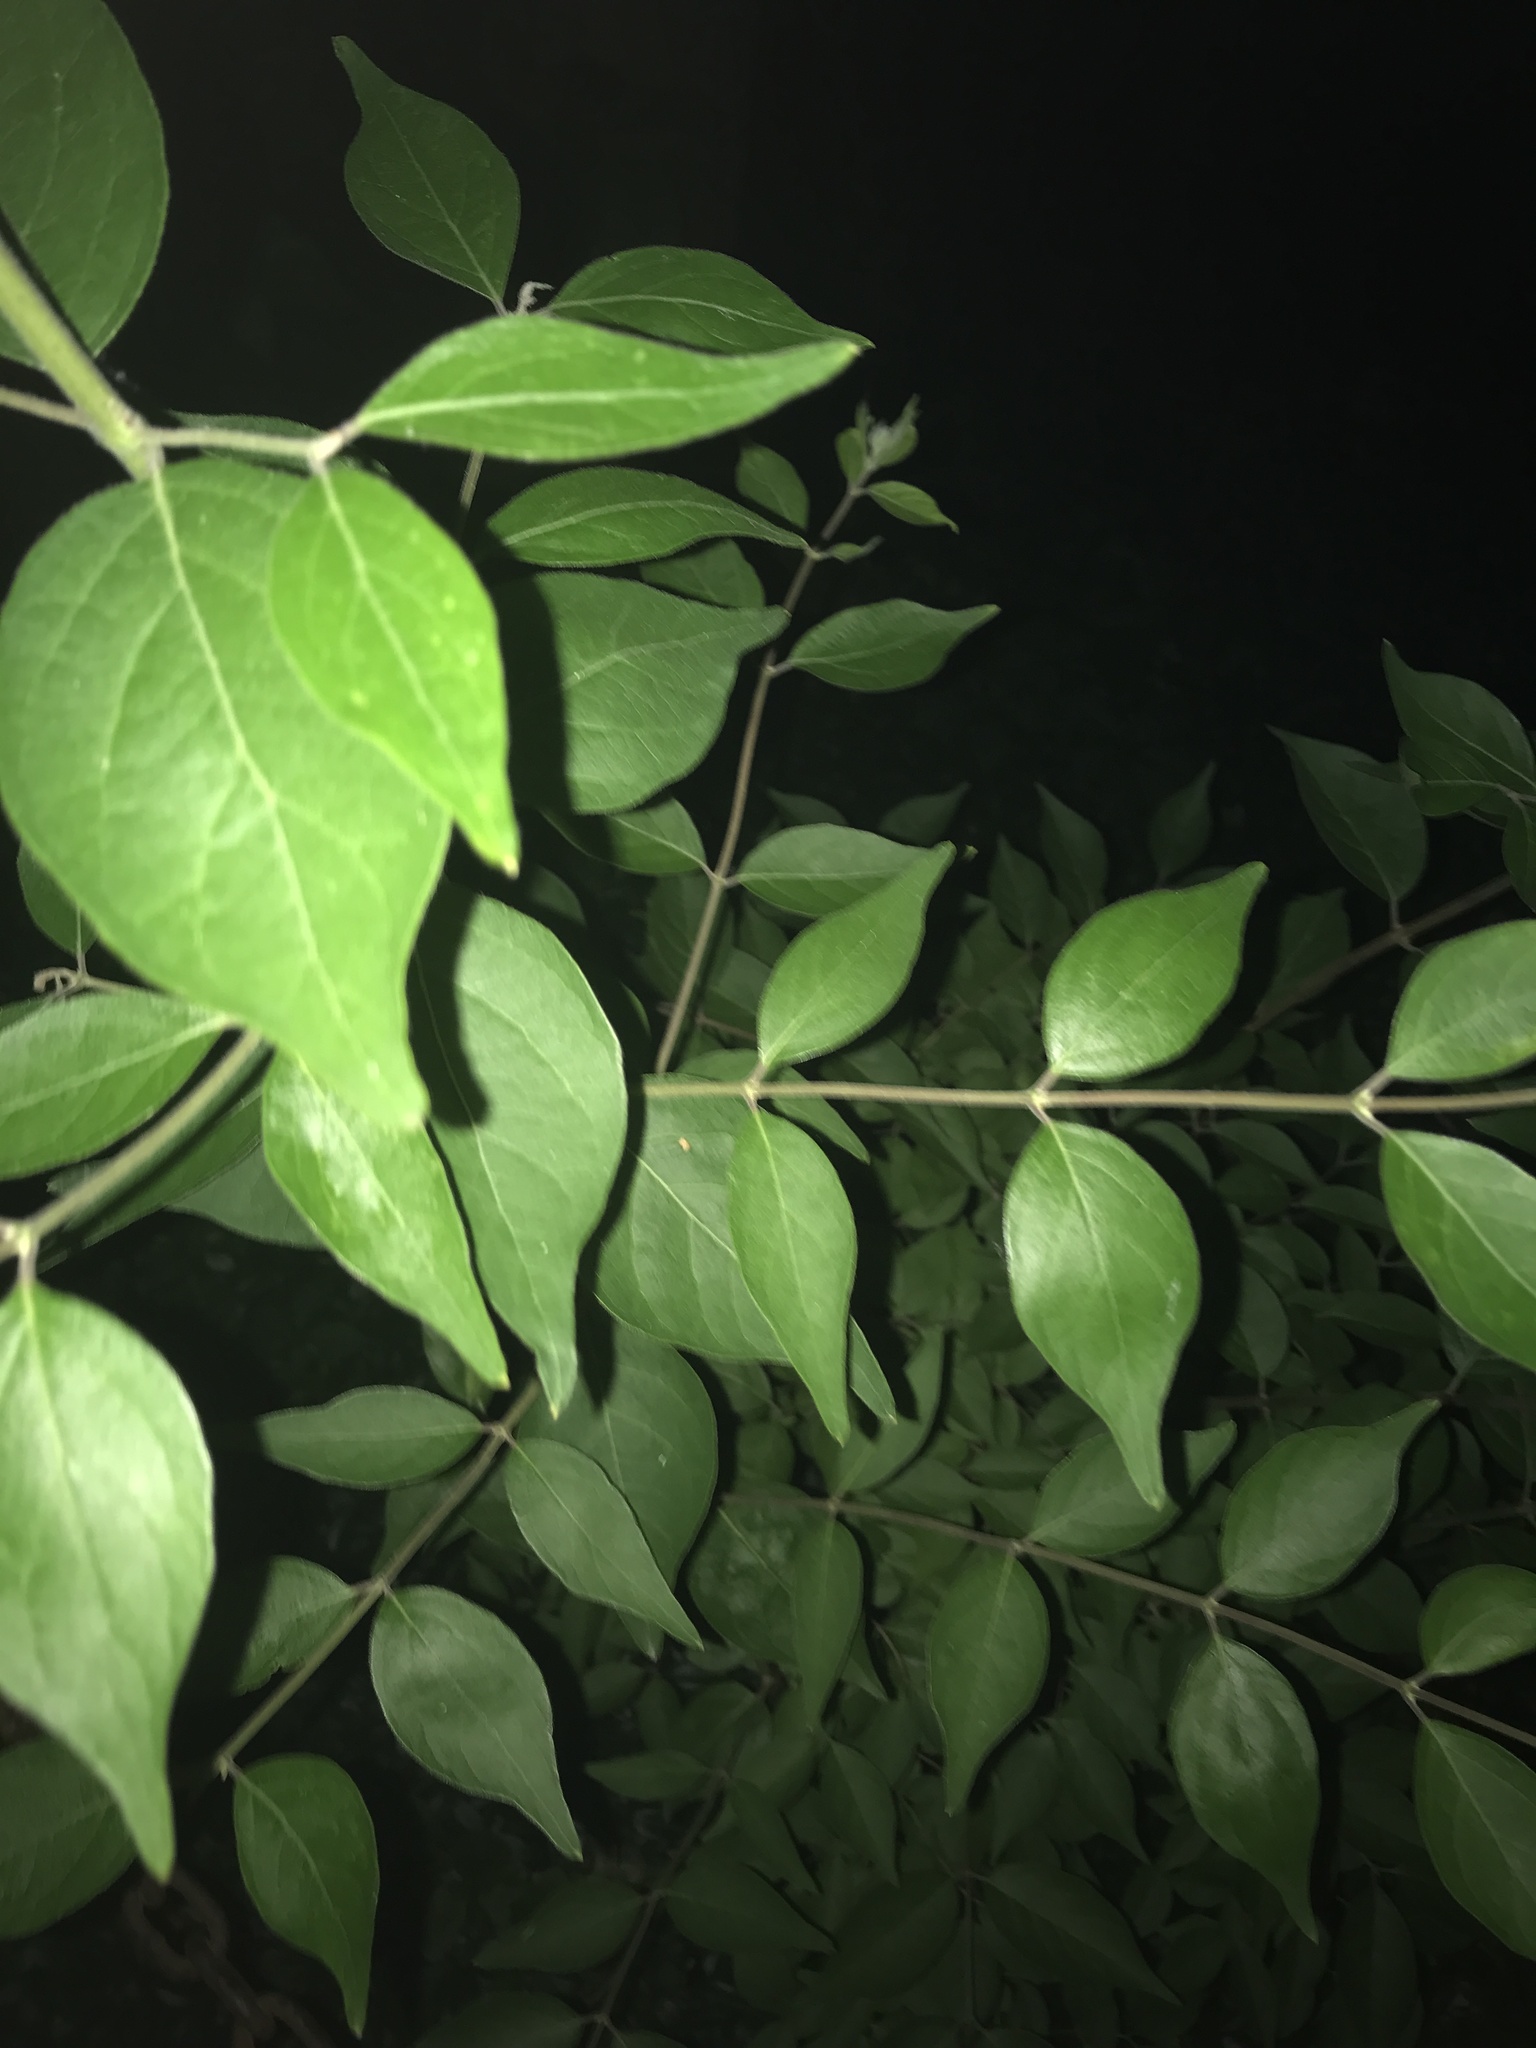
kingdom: Plantae
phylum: Tracheophyta
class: Magnoliopsida
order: Dipsacales
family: Caprifoliaceae
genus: Lonicera
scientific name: Lonicera maackii
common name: Amur honeysuckle
